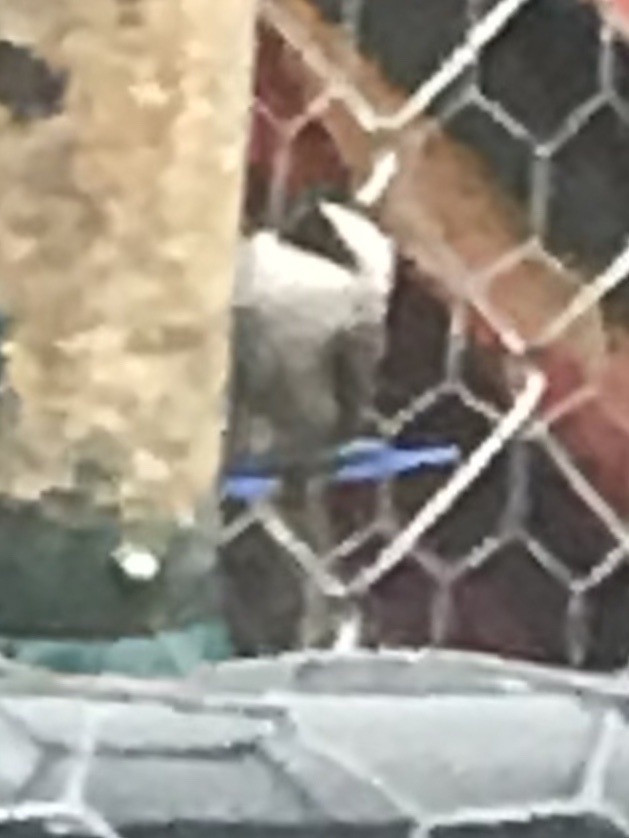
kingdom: Animalia
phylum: Chordata
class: Aves
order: Passeriformes
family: Paridae
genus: Poecile
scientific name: Poecile carolinensis
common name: Carolina chickadee
